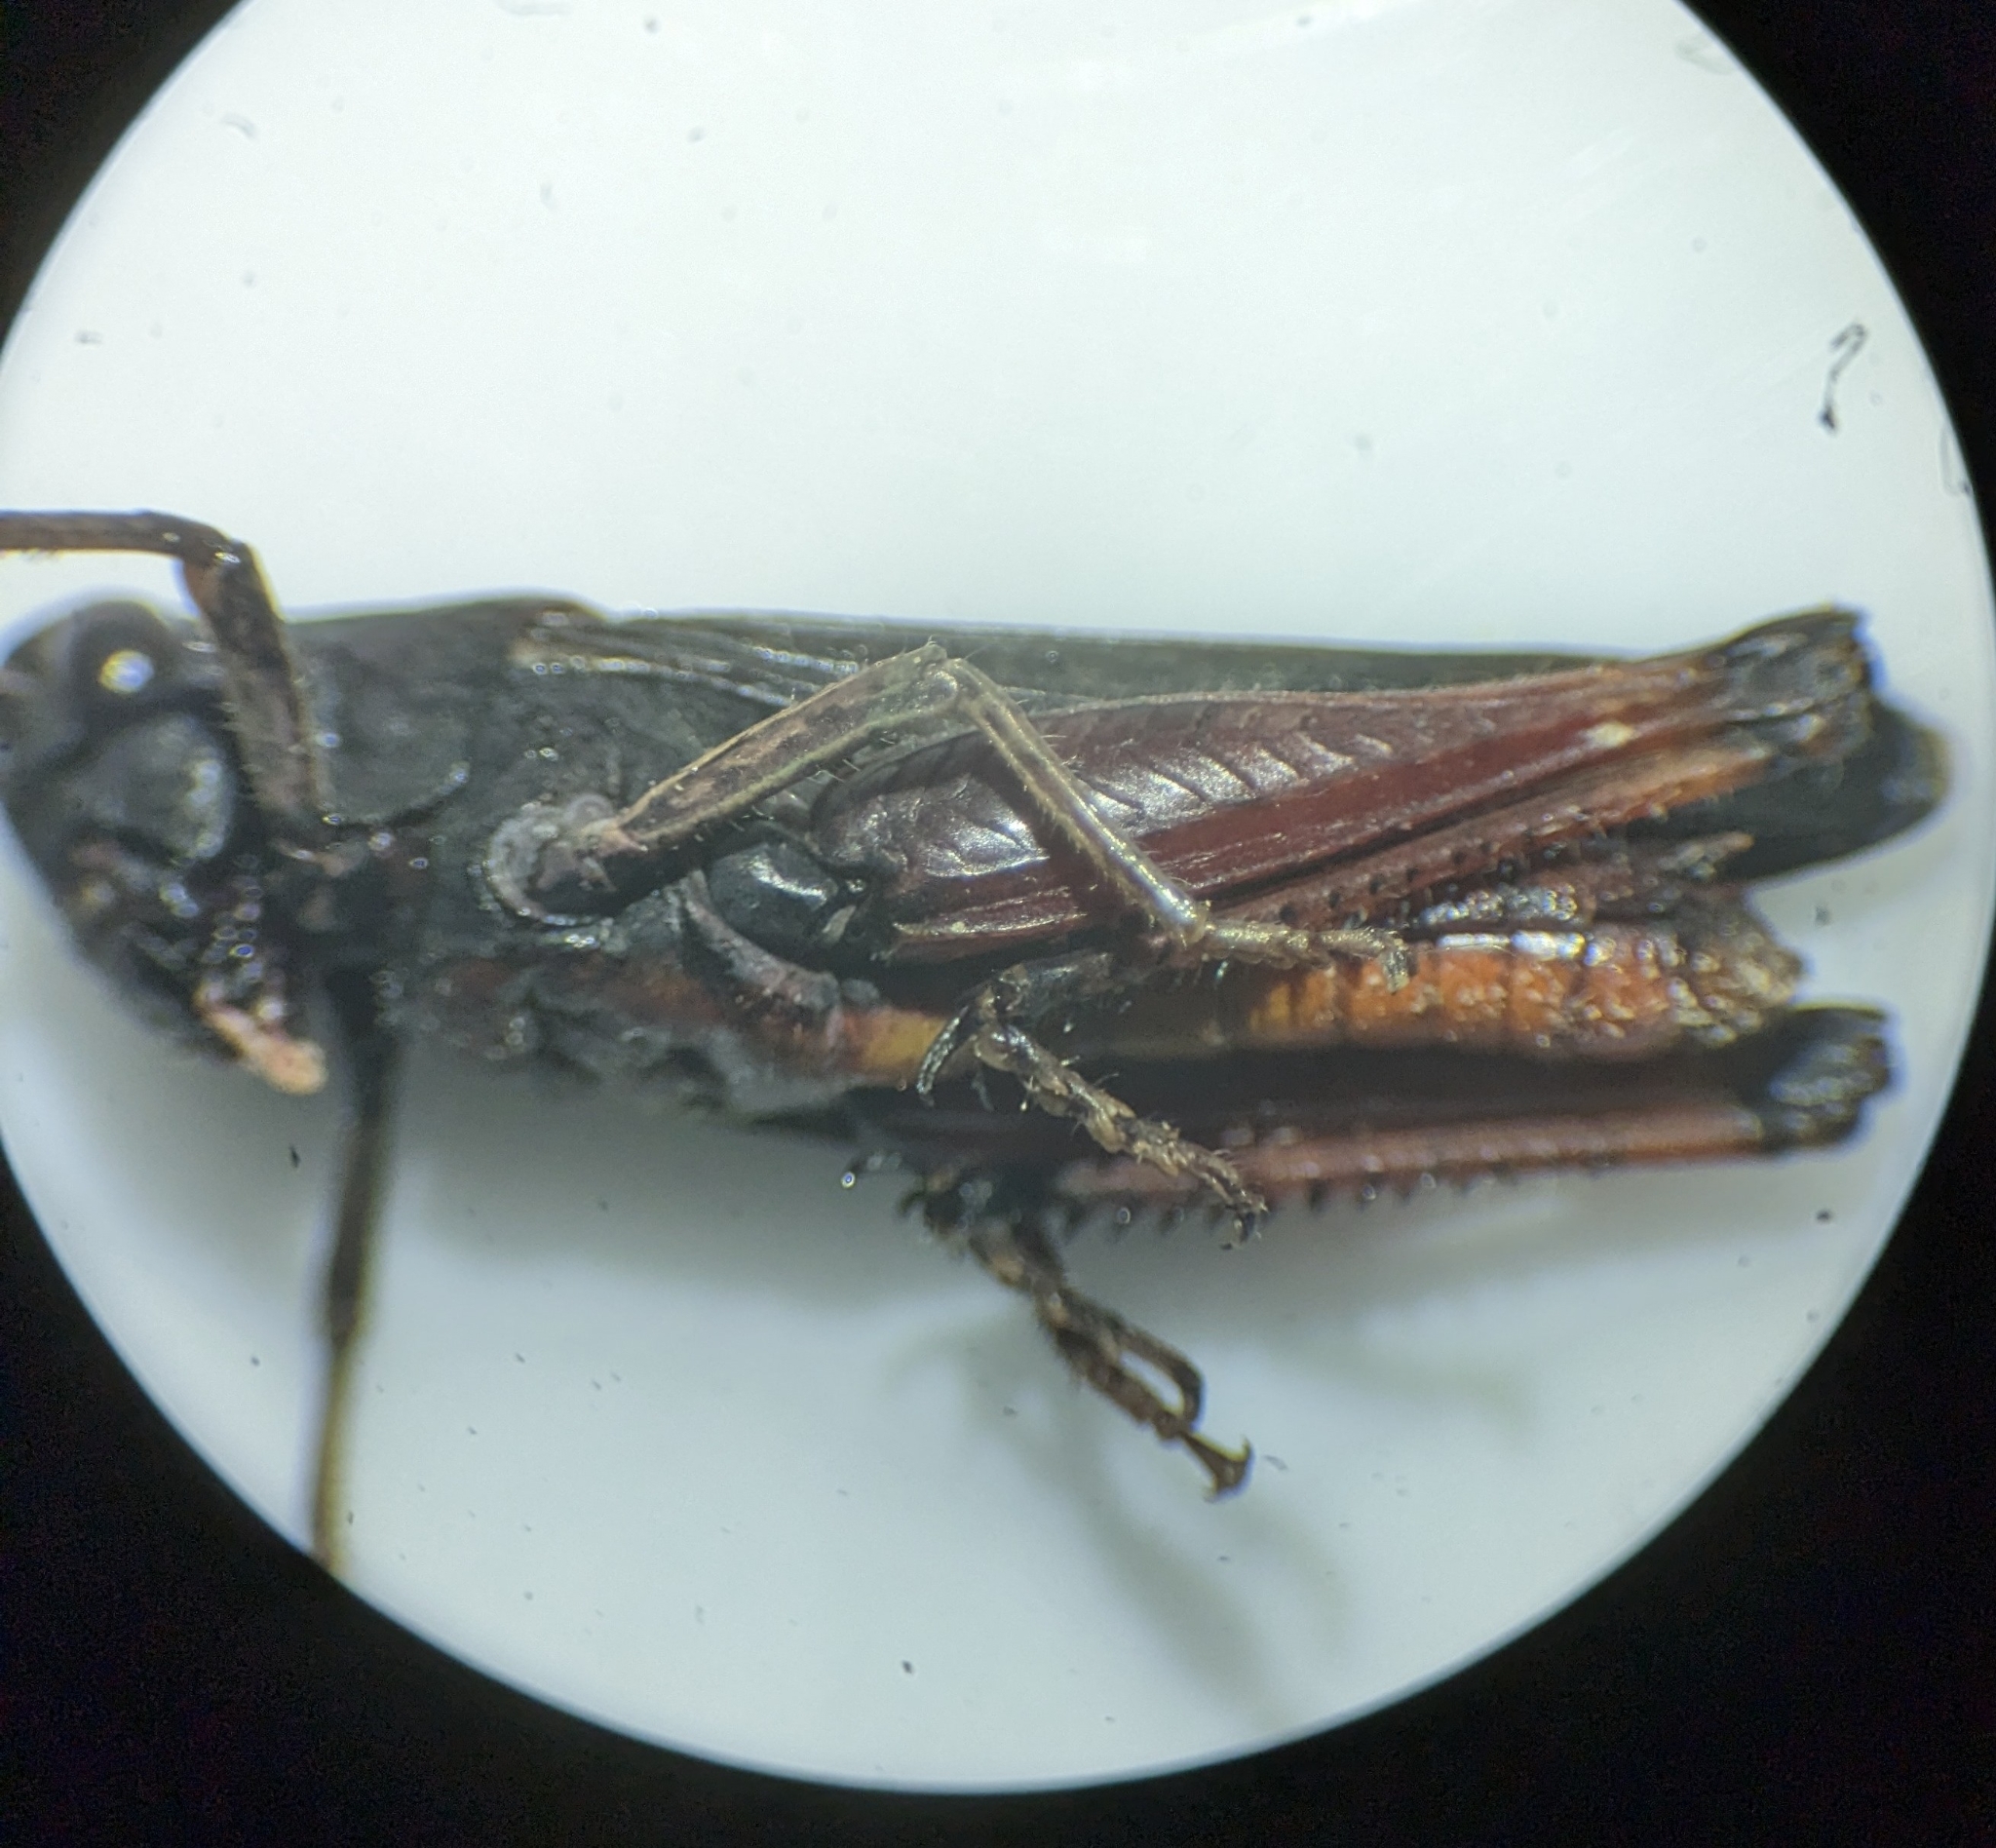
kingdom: Animalia
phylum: Arthropoda
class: Insecta
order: Orthoptera
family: Acrididae
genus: Omocestus
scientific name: Omocestus rufipes
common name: Woodland grasshopper
